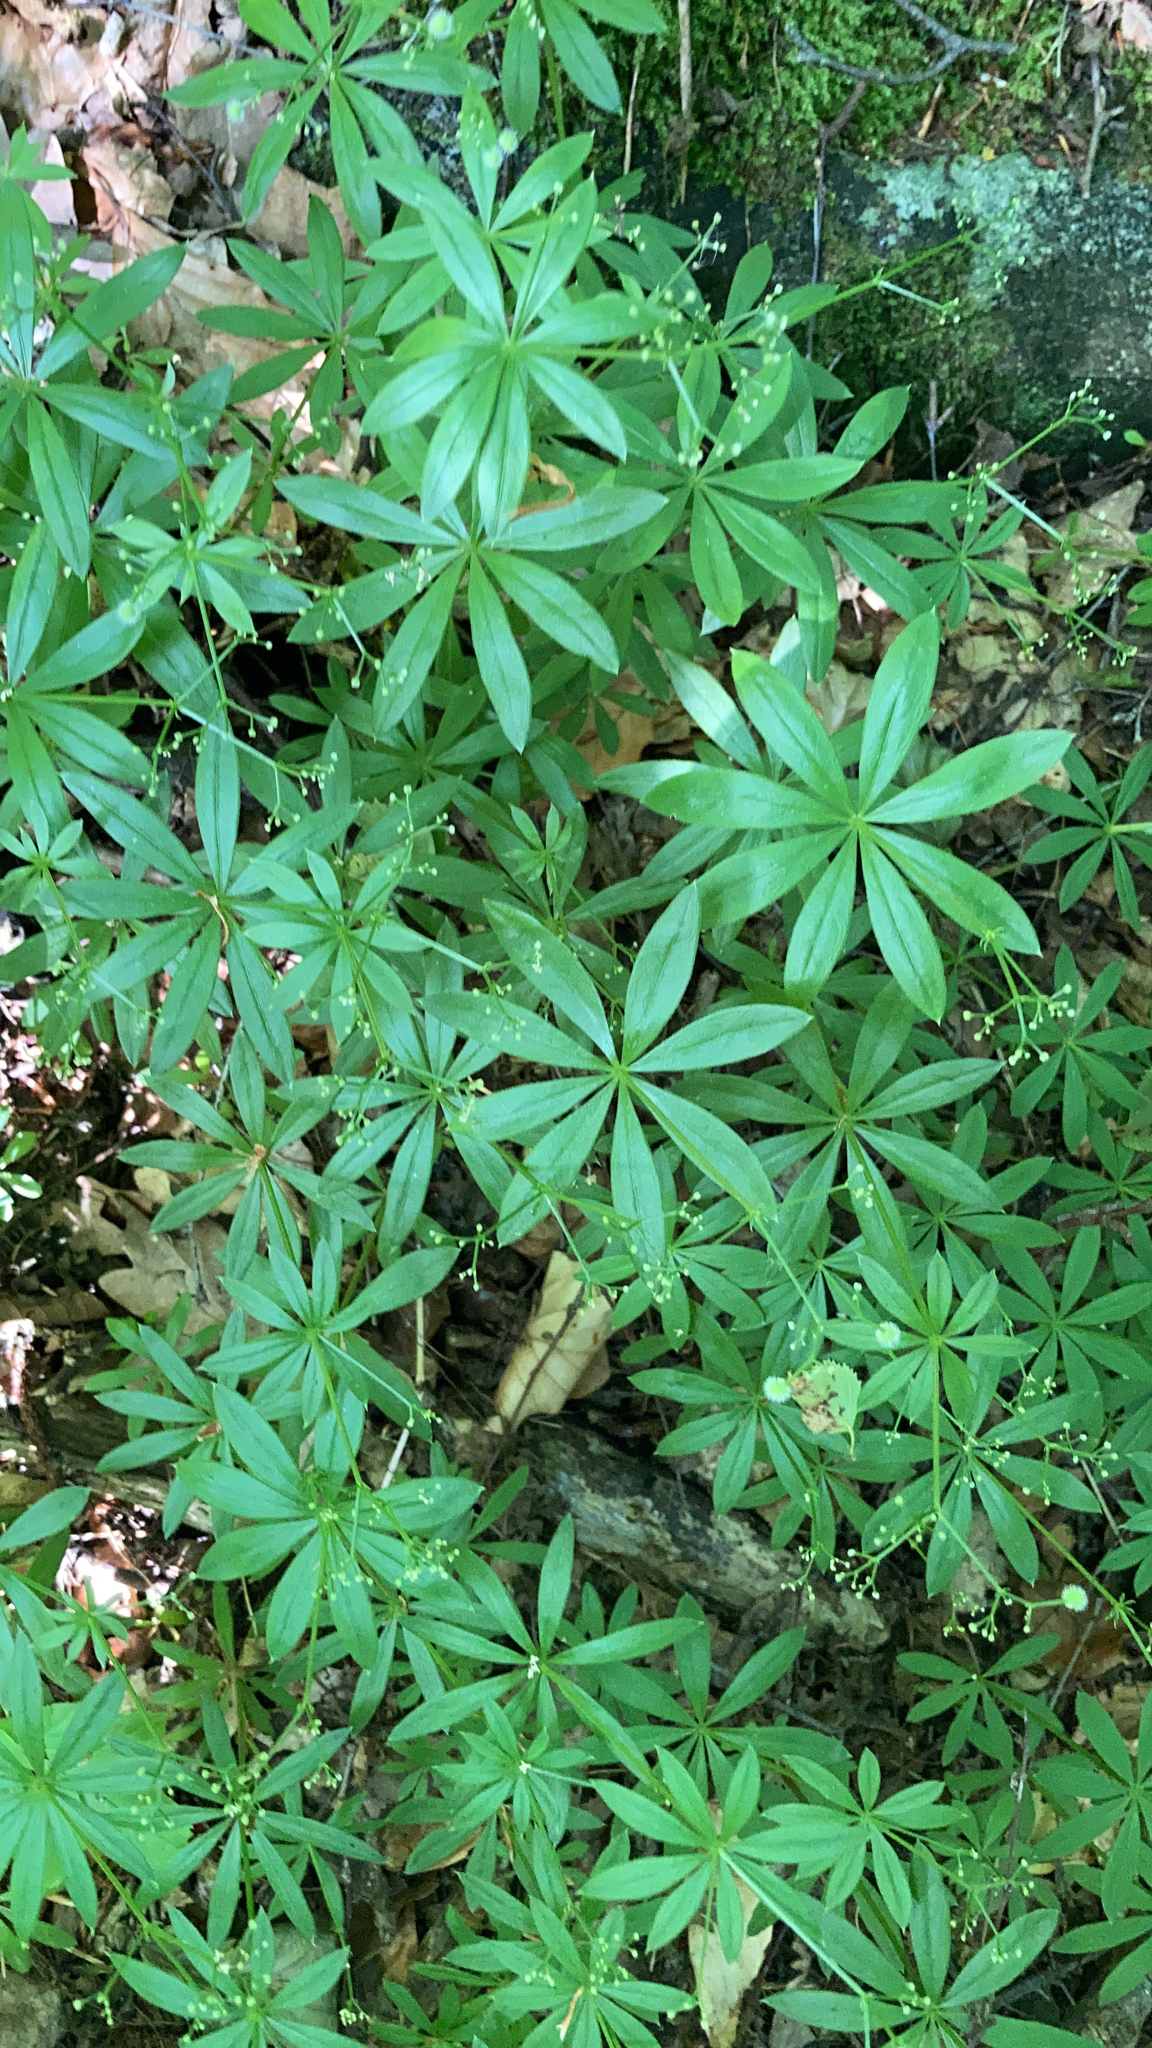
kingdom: Plantae
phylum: Tracheophyta
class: Magnoliopsida
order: Gentianales
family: Rubiaceae
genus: Galium
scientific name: Galium odoratum
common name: Sweet woodruff
